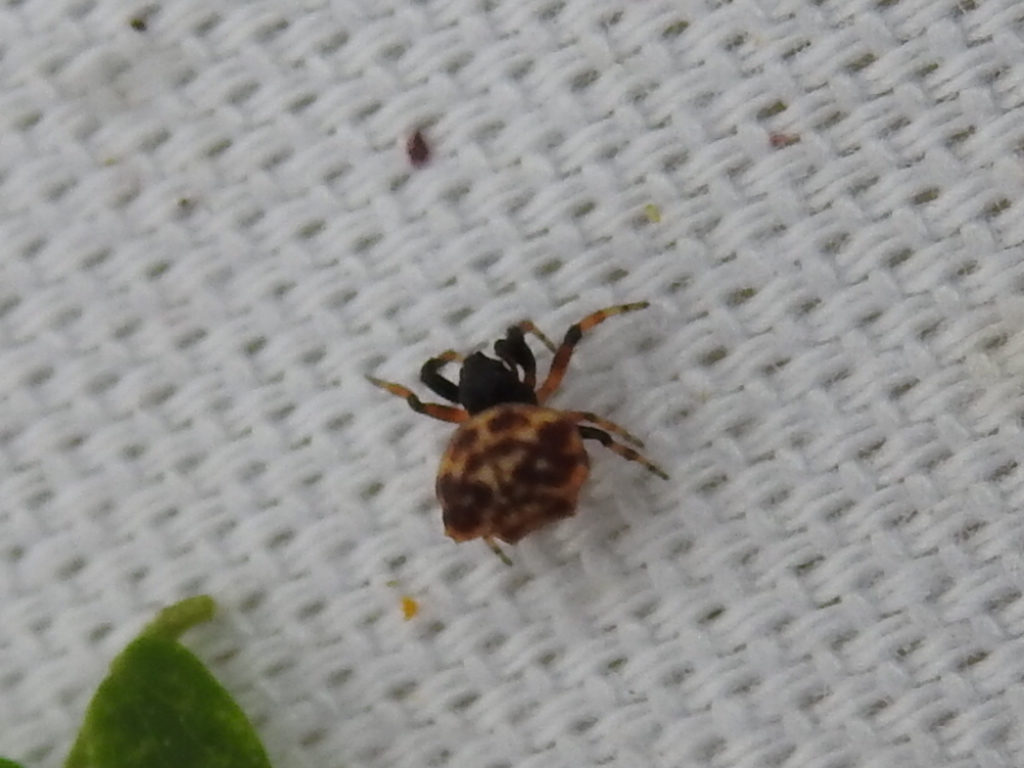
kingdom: Animalia
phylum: Arthropoda
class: Arachnida
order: Araneae
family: Araneidae
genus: Gasteracantha
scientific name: Gasteracantha cancriformis
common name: Orb weavers
